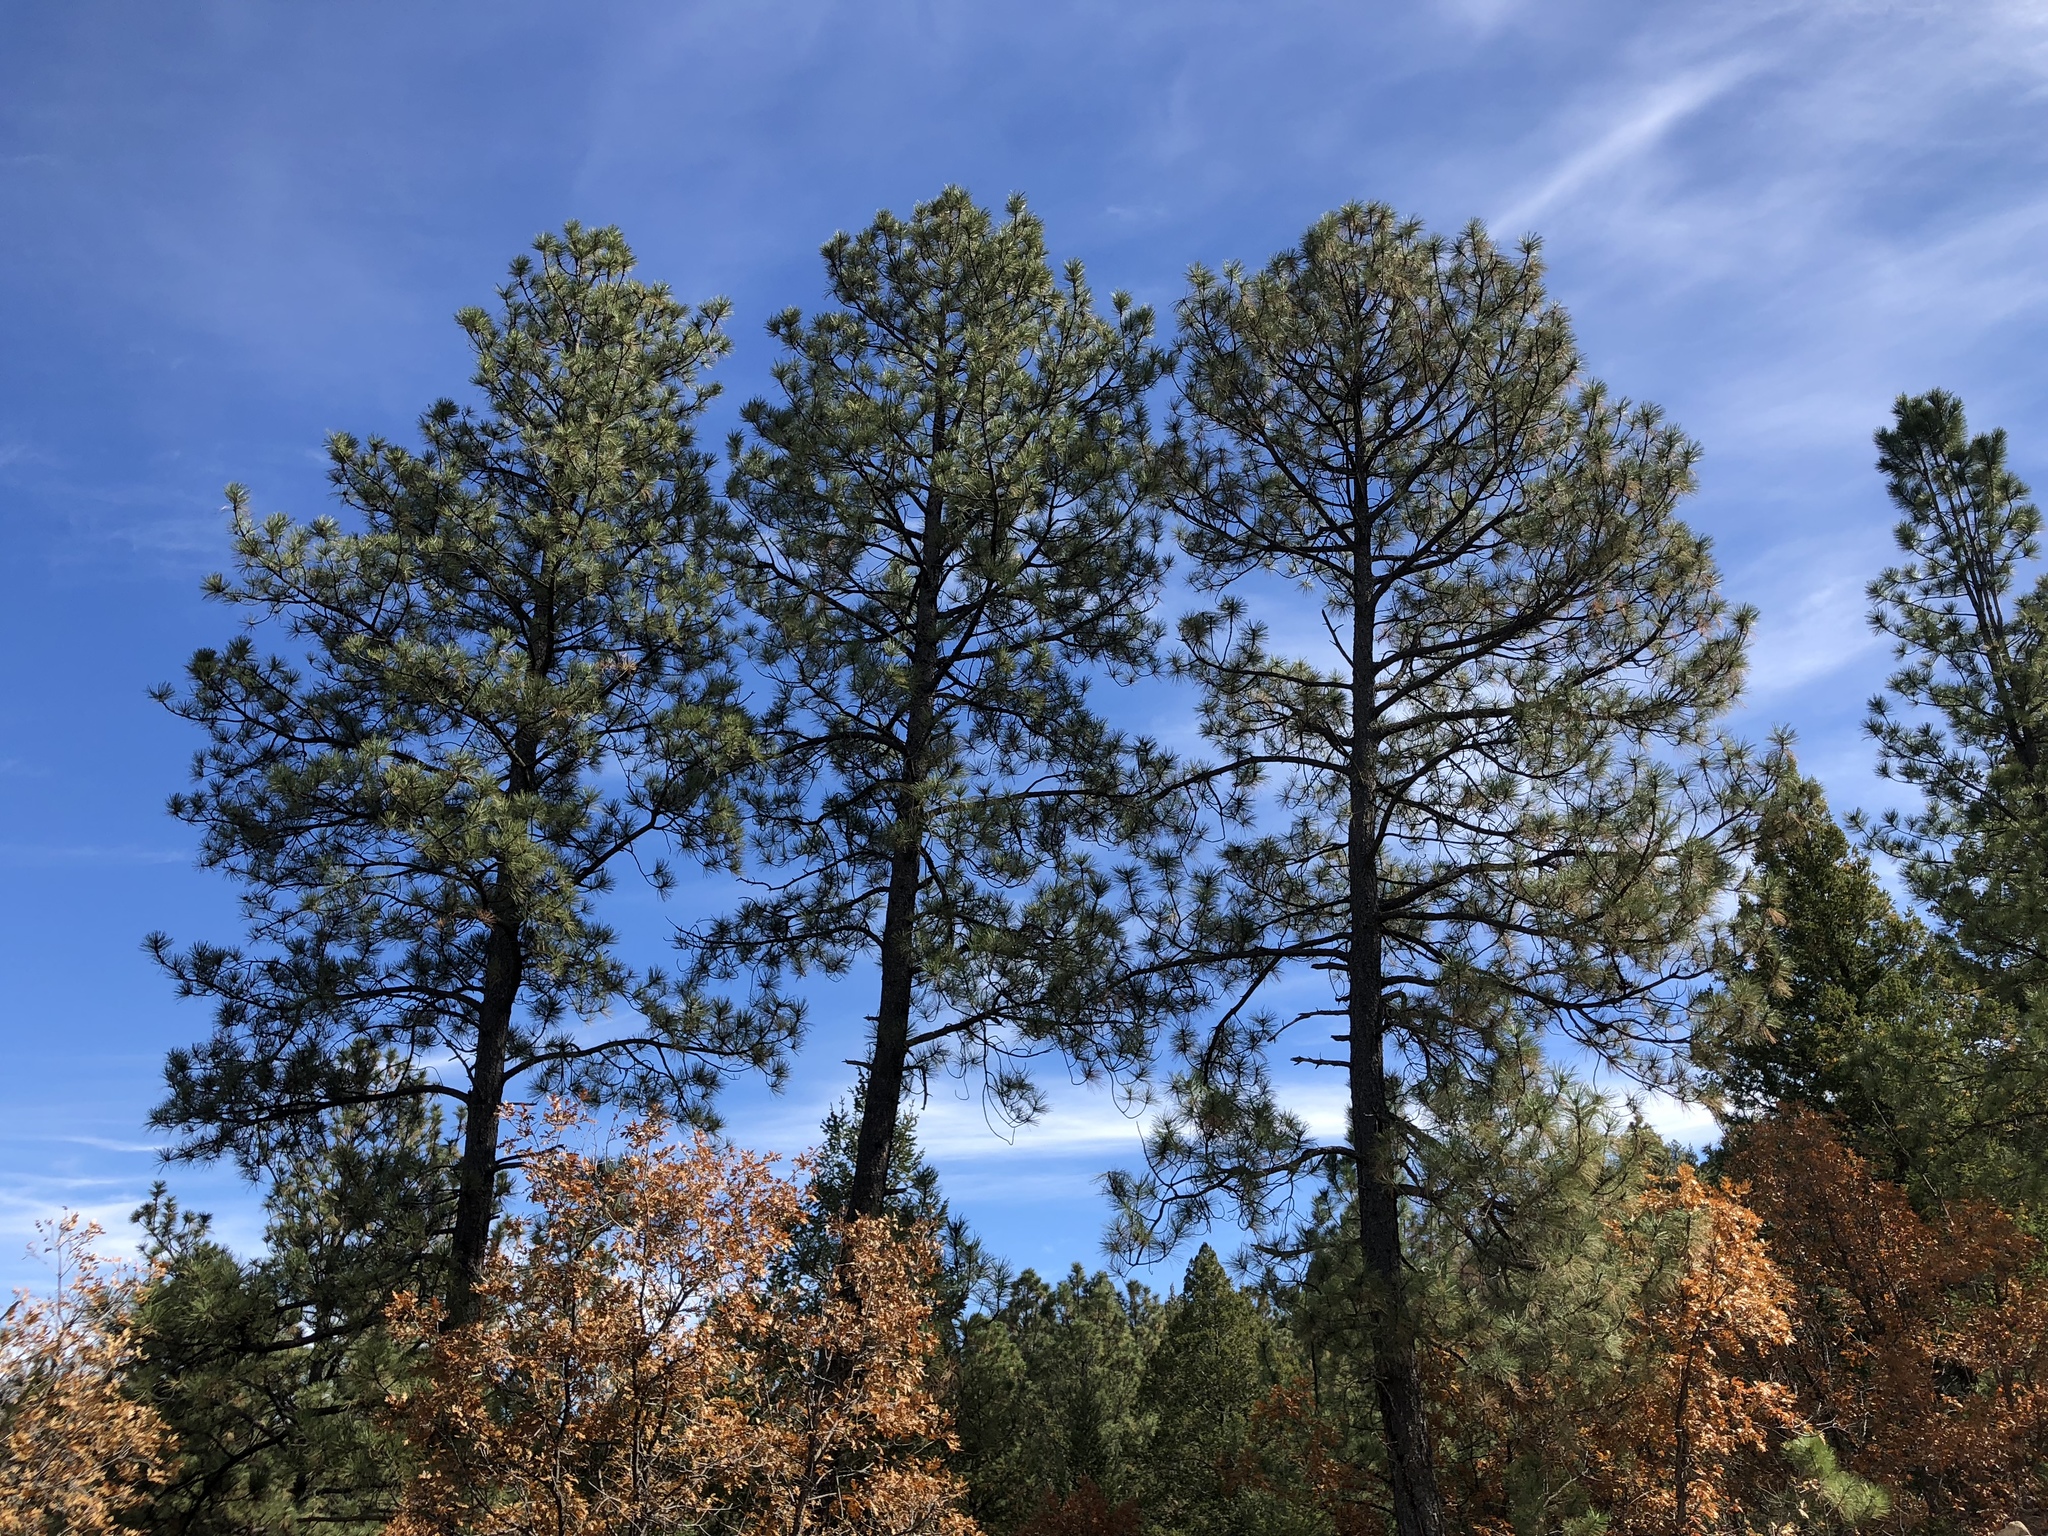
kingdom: Plantae
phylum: Tracheophyta
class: Pinopsida
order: Pinales
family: Pinaceae
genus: Pinus
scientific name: Pinus ponderosa
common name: Western yellow-pine
